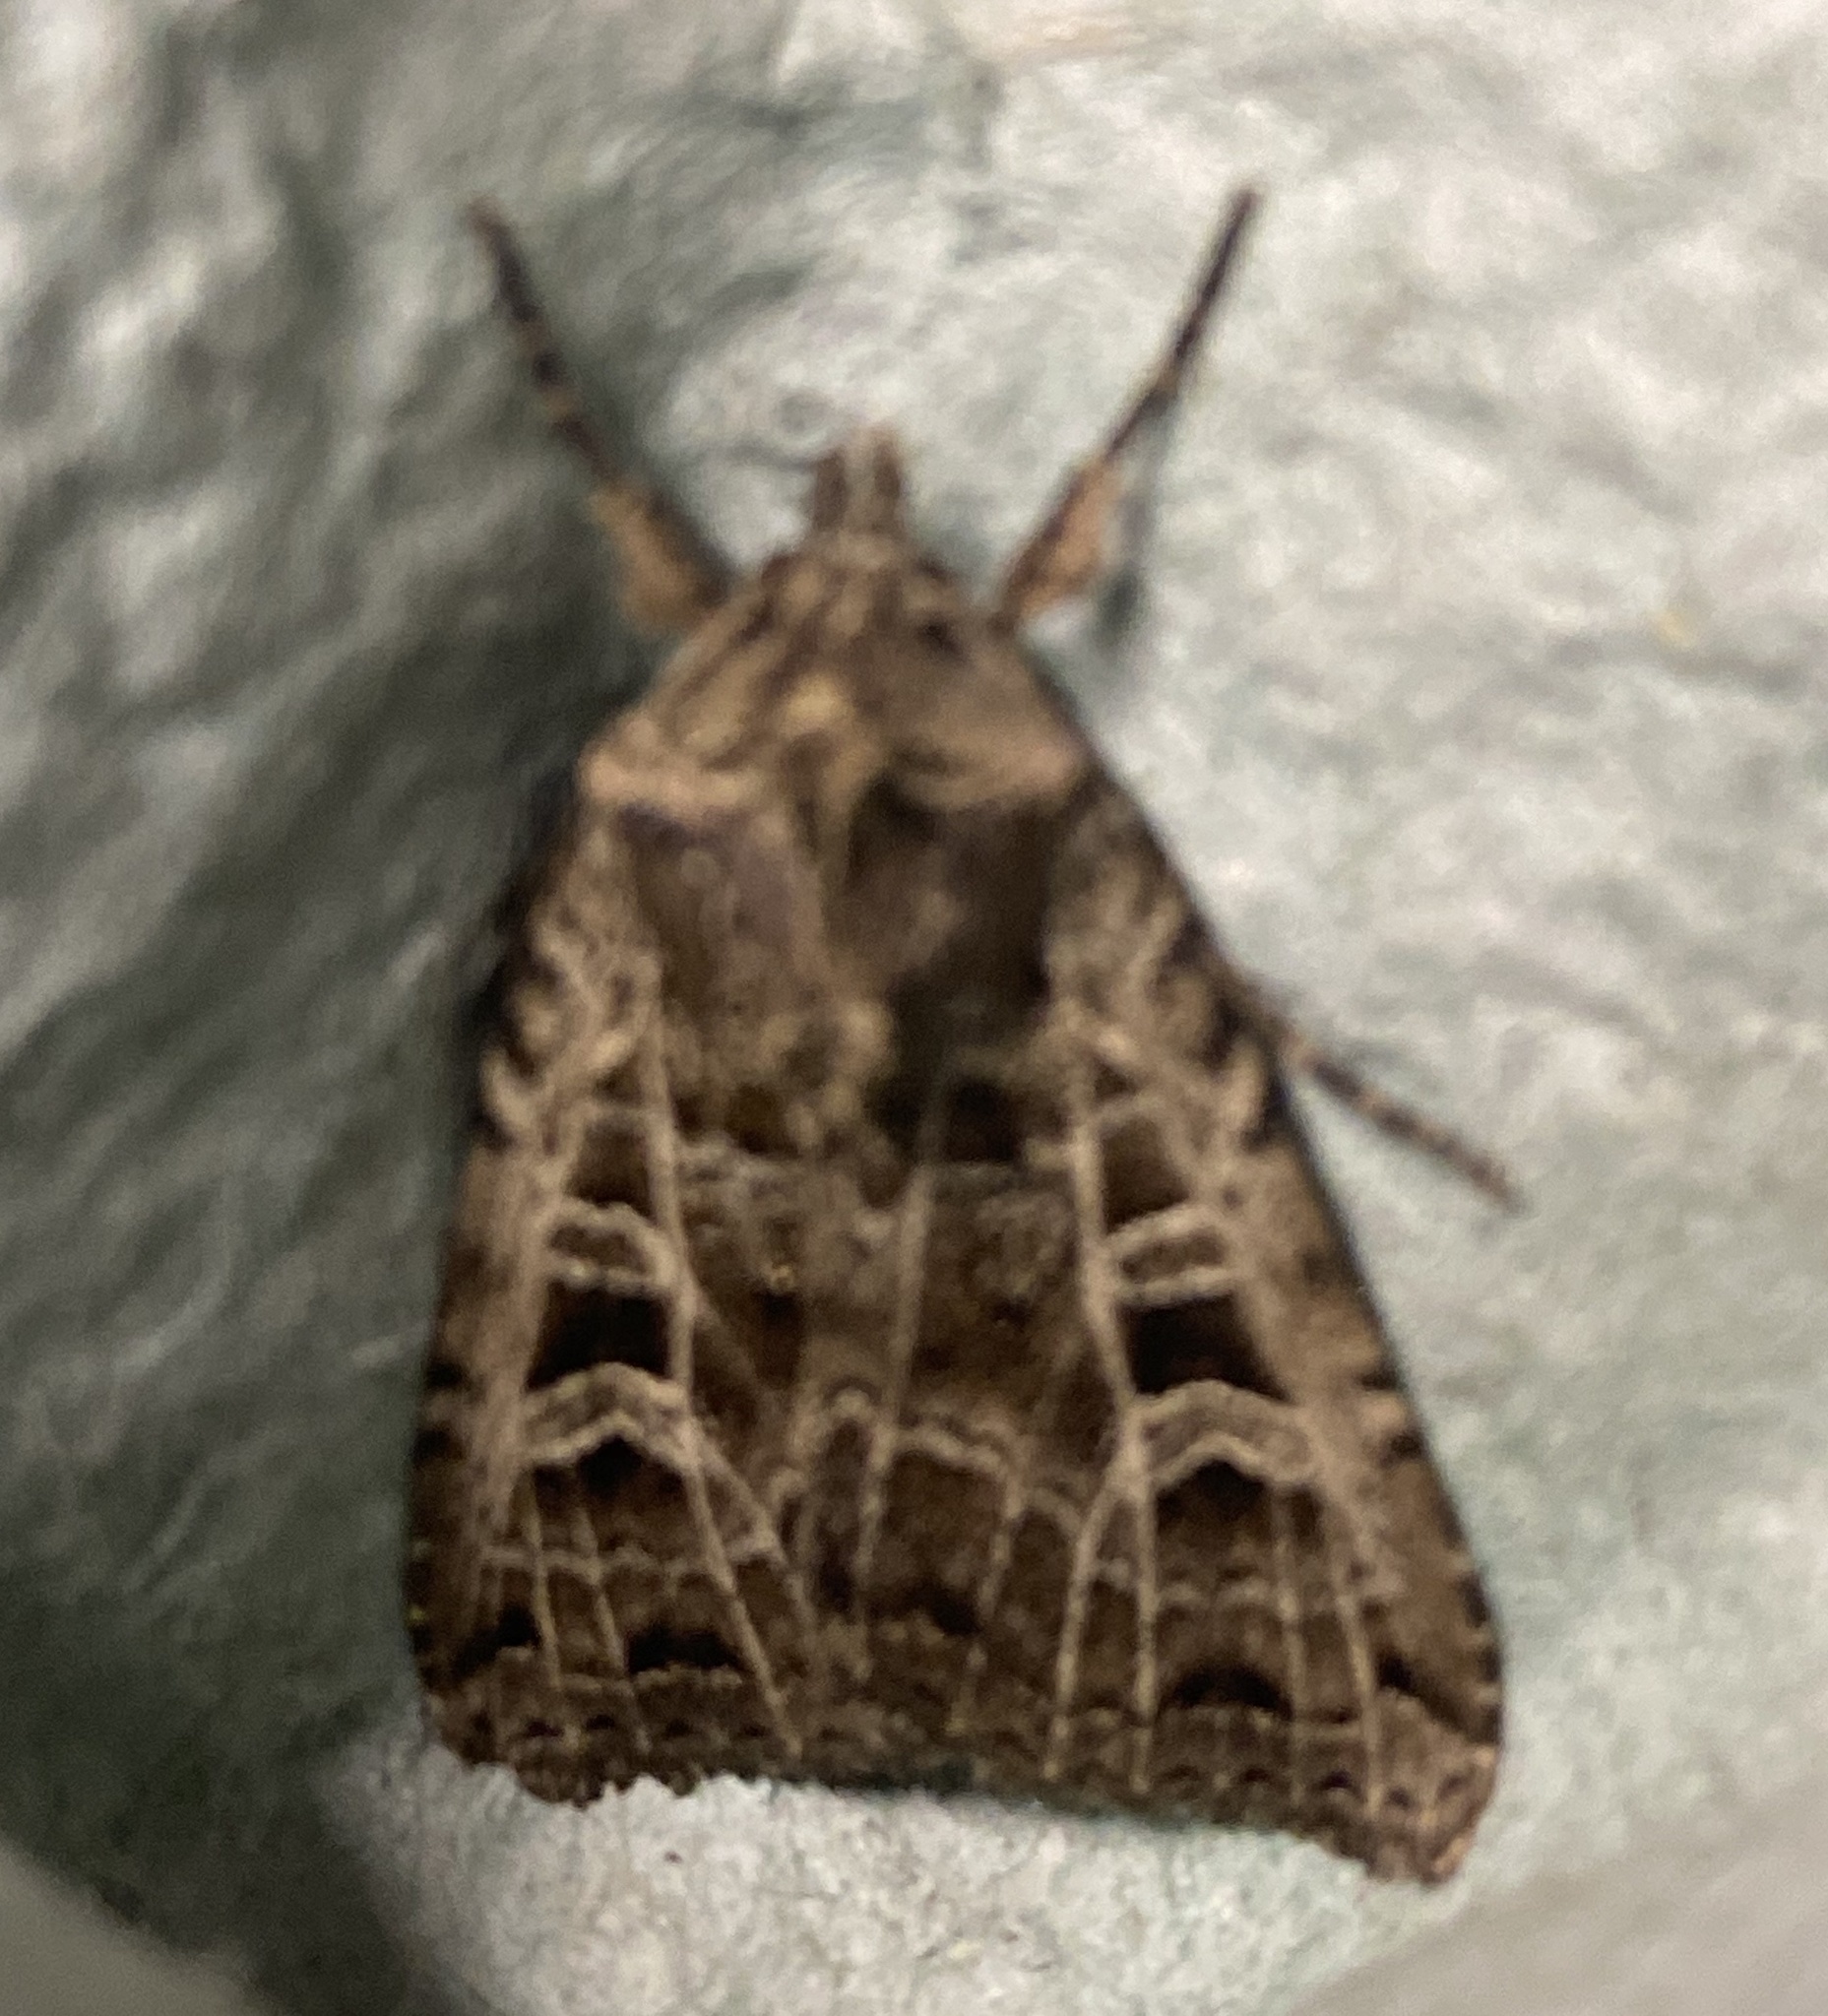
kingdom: Animalia
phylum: Arthropoda
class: Insecta
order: Lepidoptera
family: Noctuidae
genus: Sideridis
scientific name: Sideridis reticulata
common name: Bordered gothic
